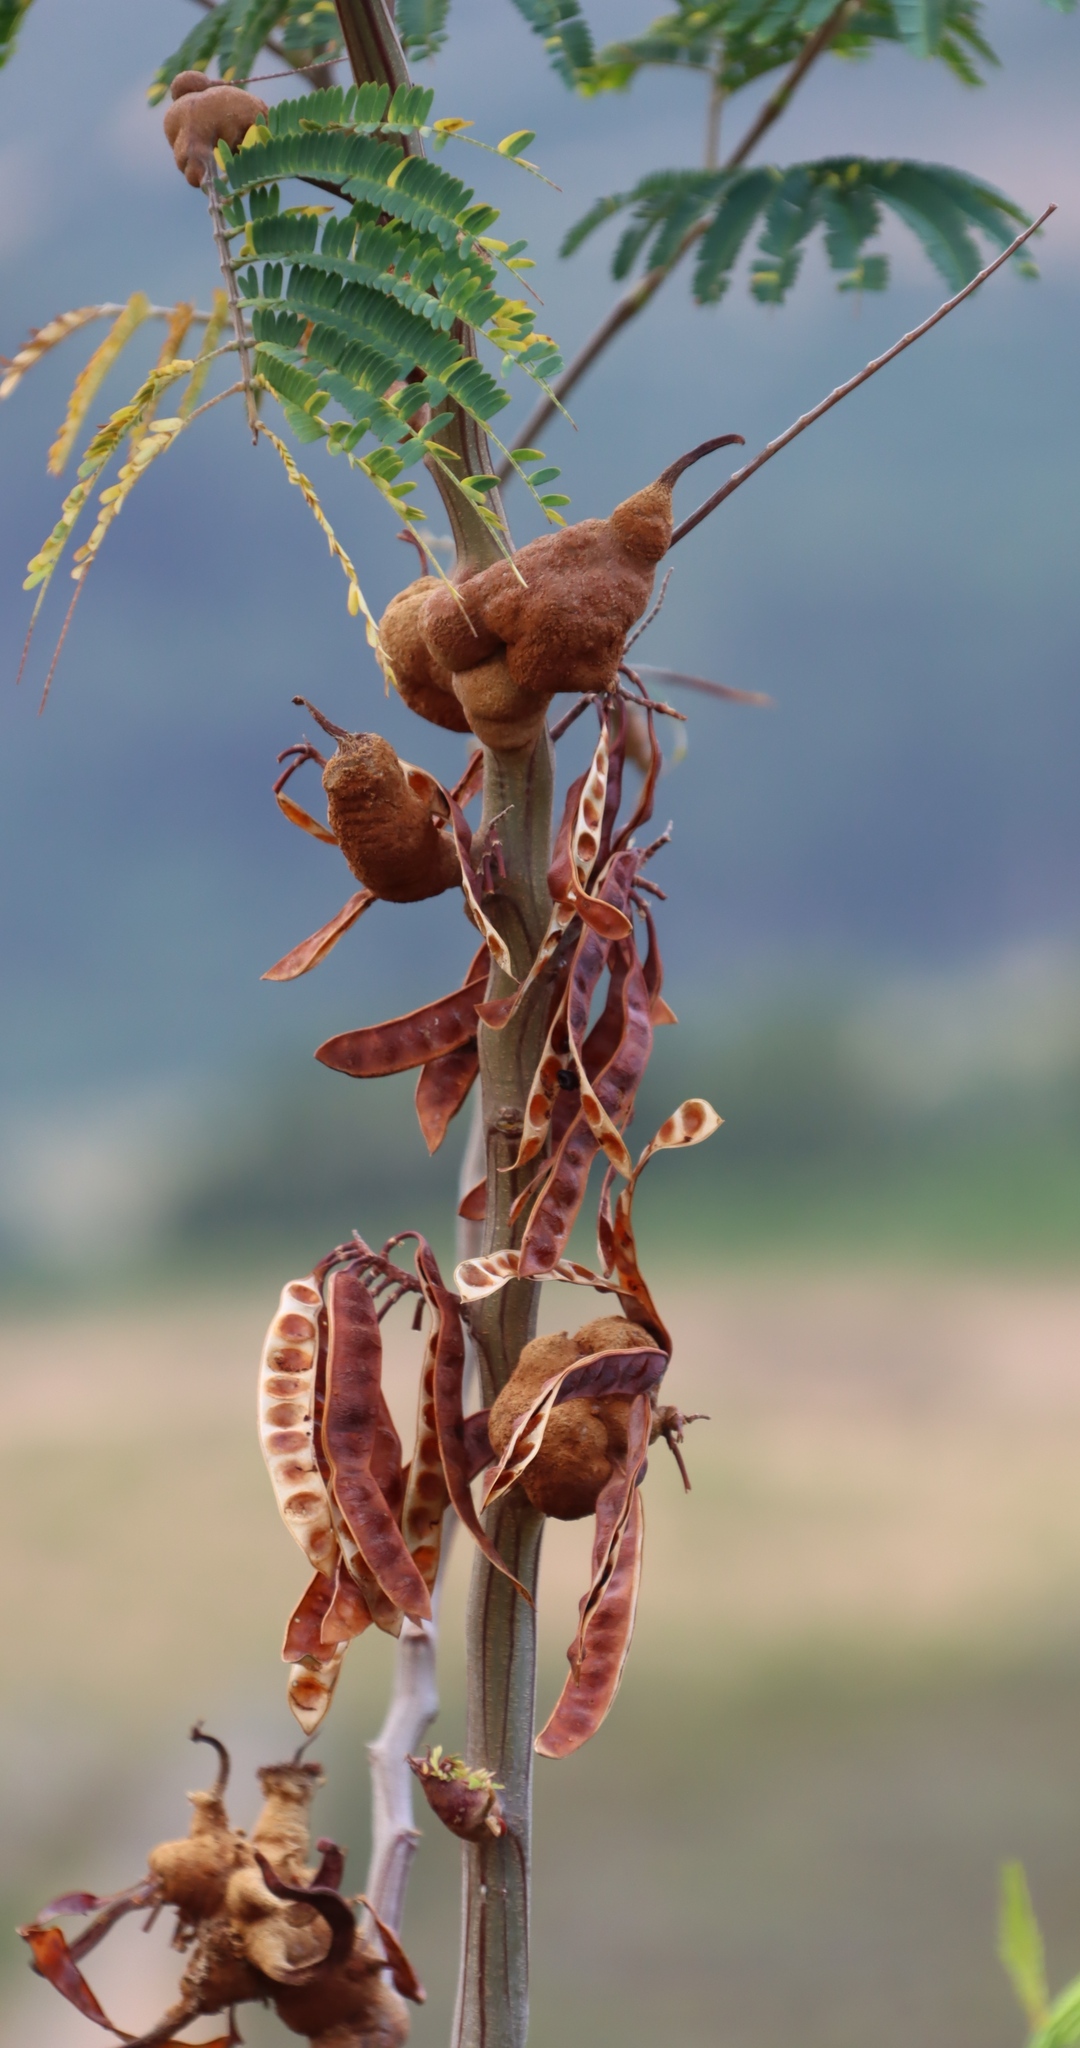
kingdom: Plantae
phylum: Tracheophyta
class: Magnoliopsida
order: Fabales
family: Fabaceae
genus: Paraserianthes
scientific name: Paraserianthes lophantha
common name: Plume albizia
